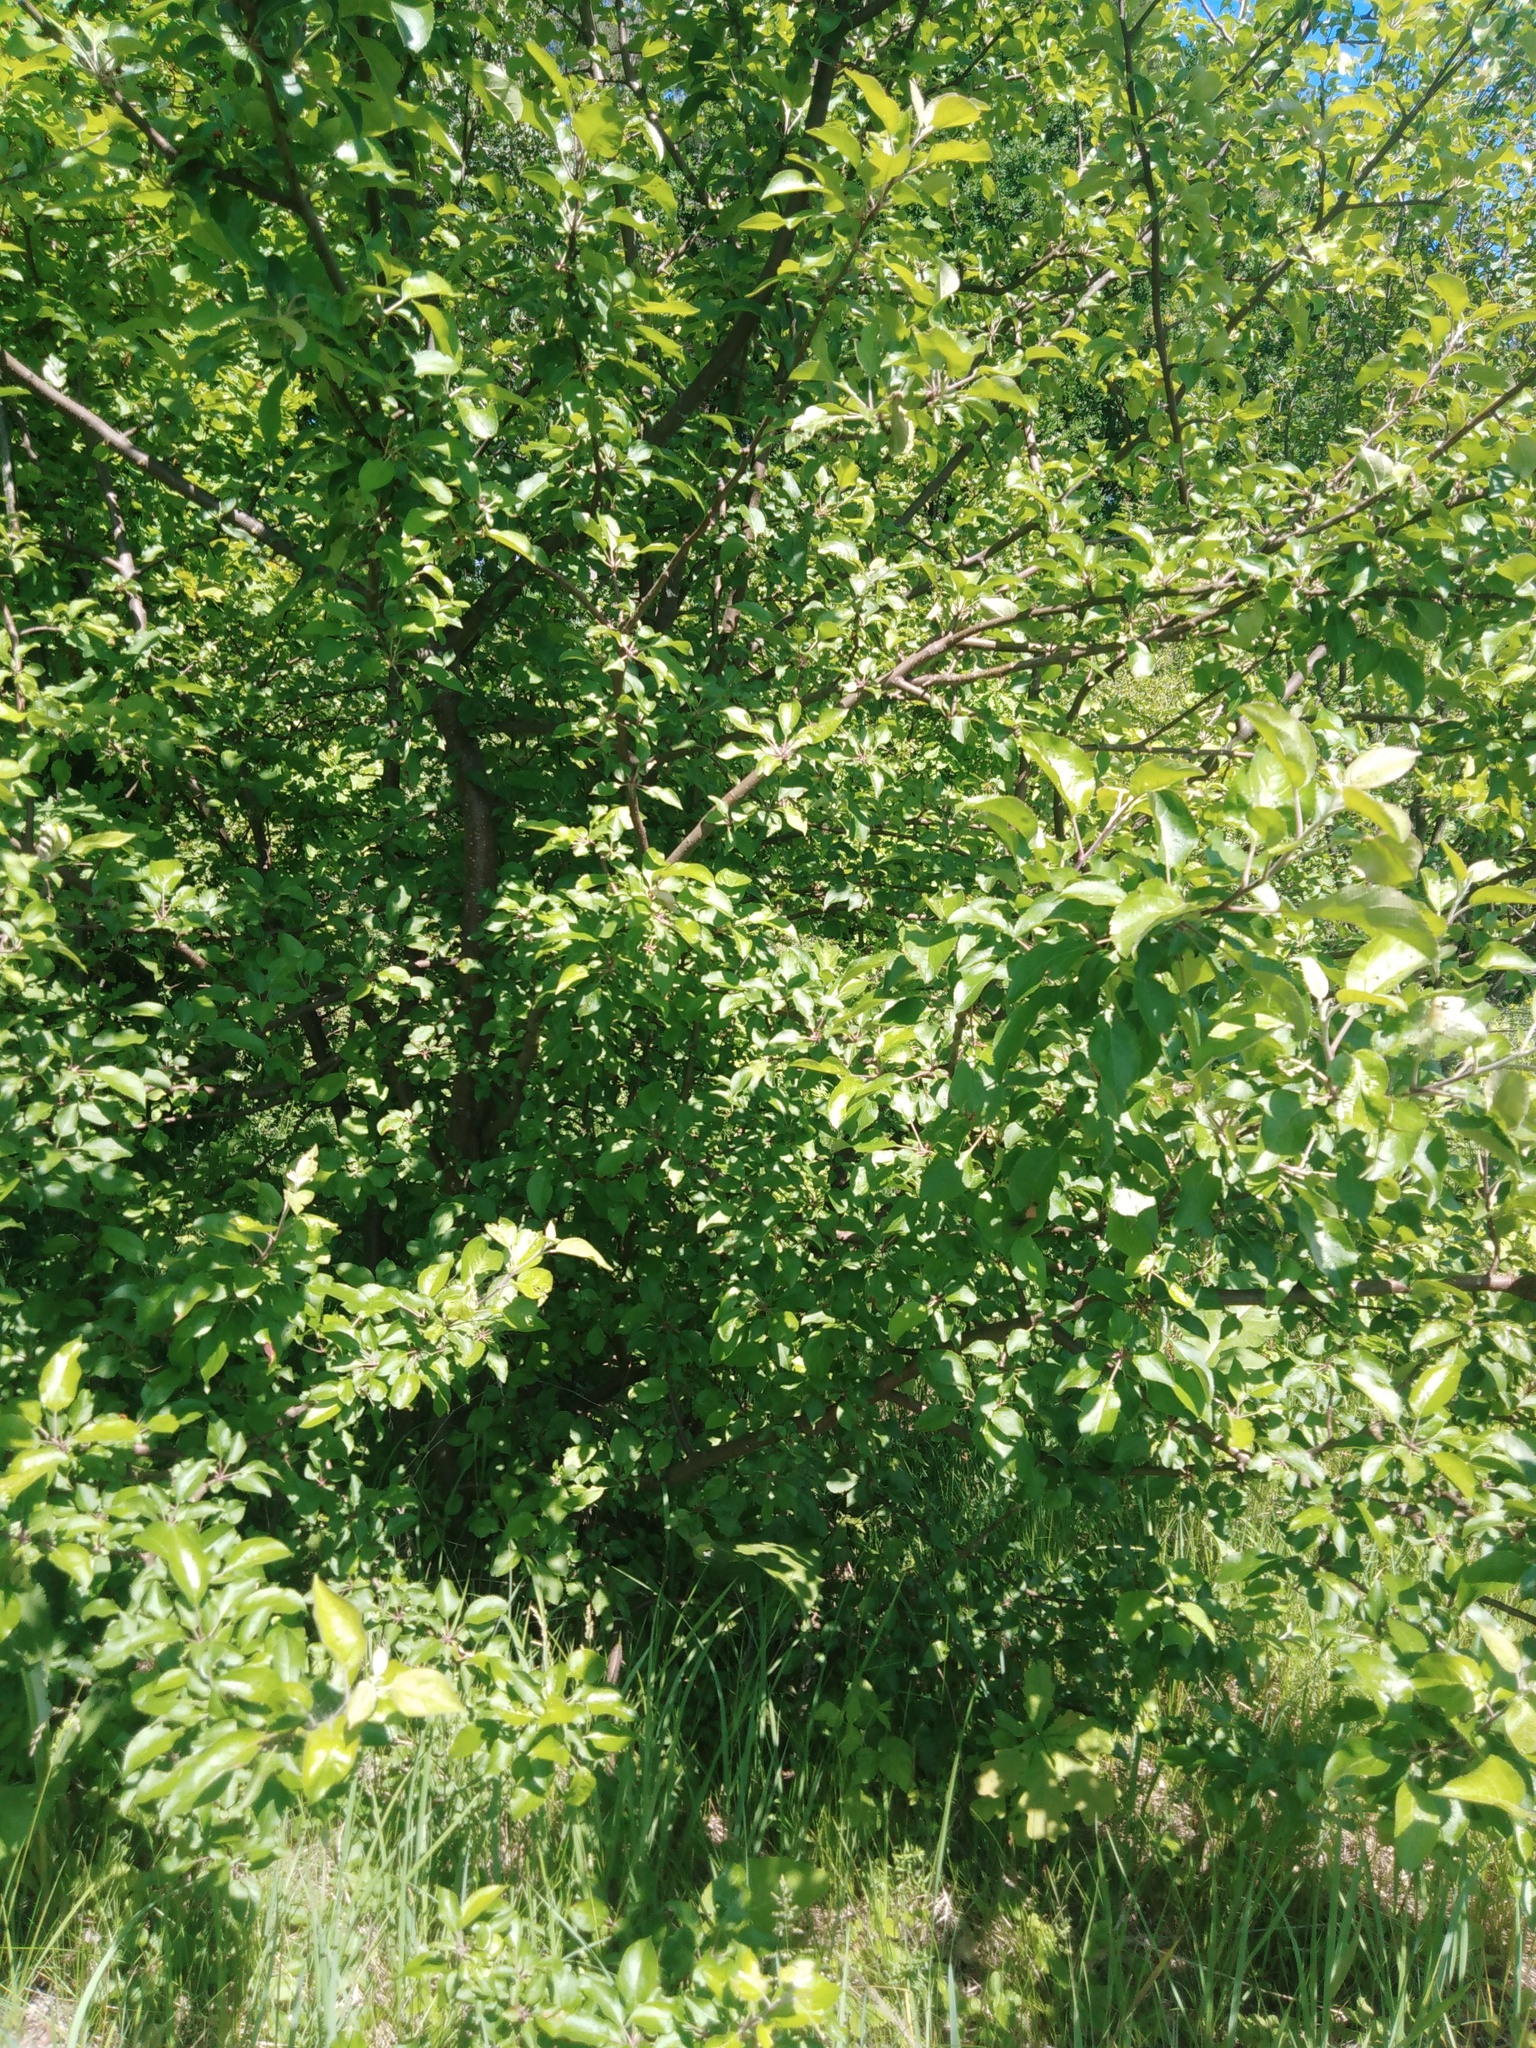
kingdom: Plantae
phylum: Tracheophyta
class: Magnoliopsida
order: Rosales
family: Rosaceae
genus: Malus
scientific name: Malus domestica
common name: Apple
